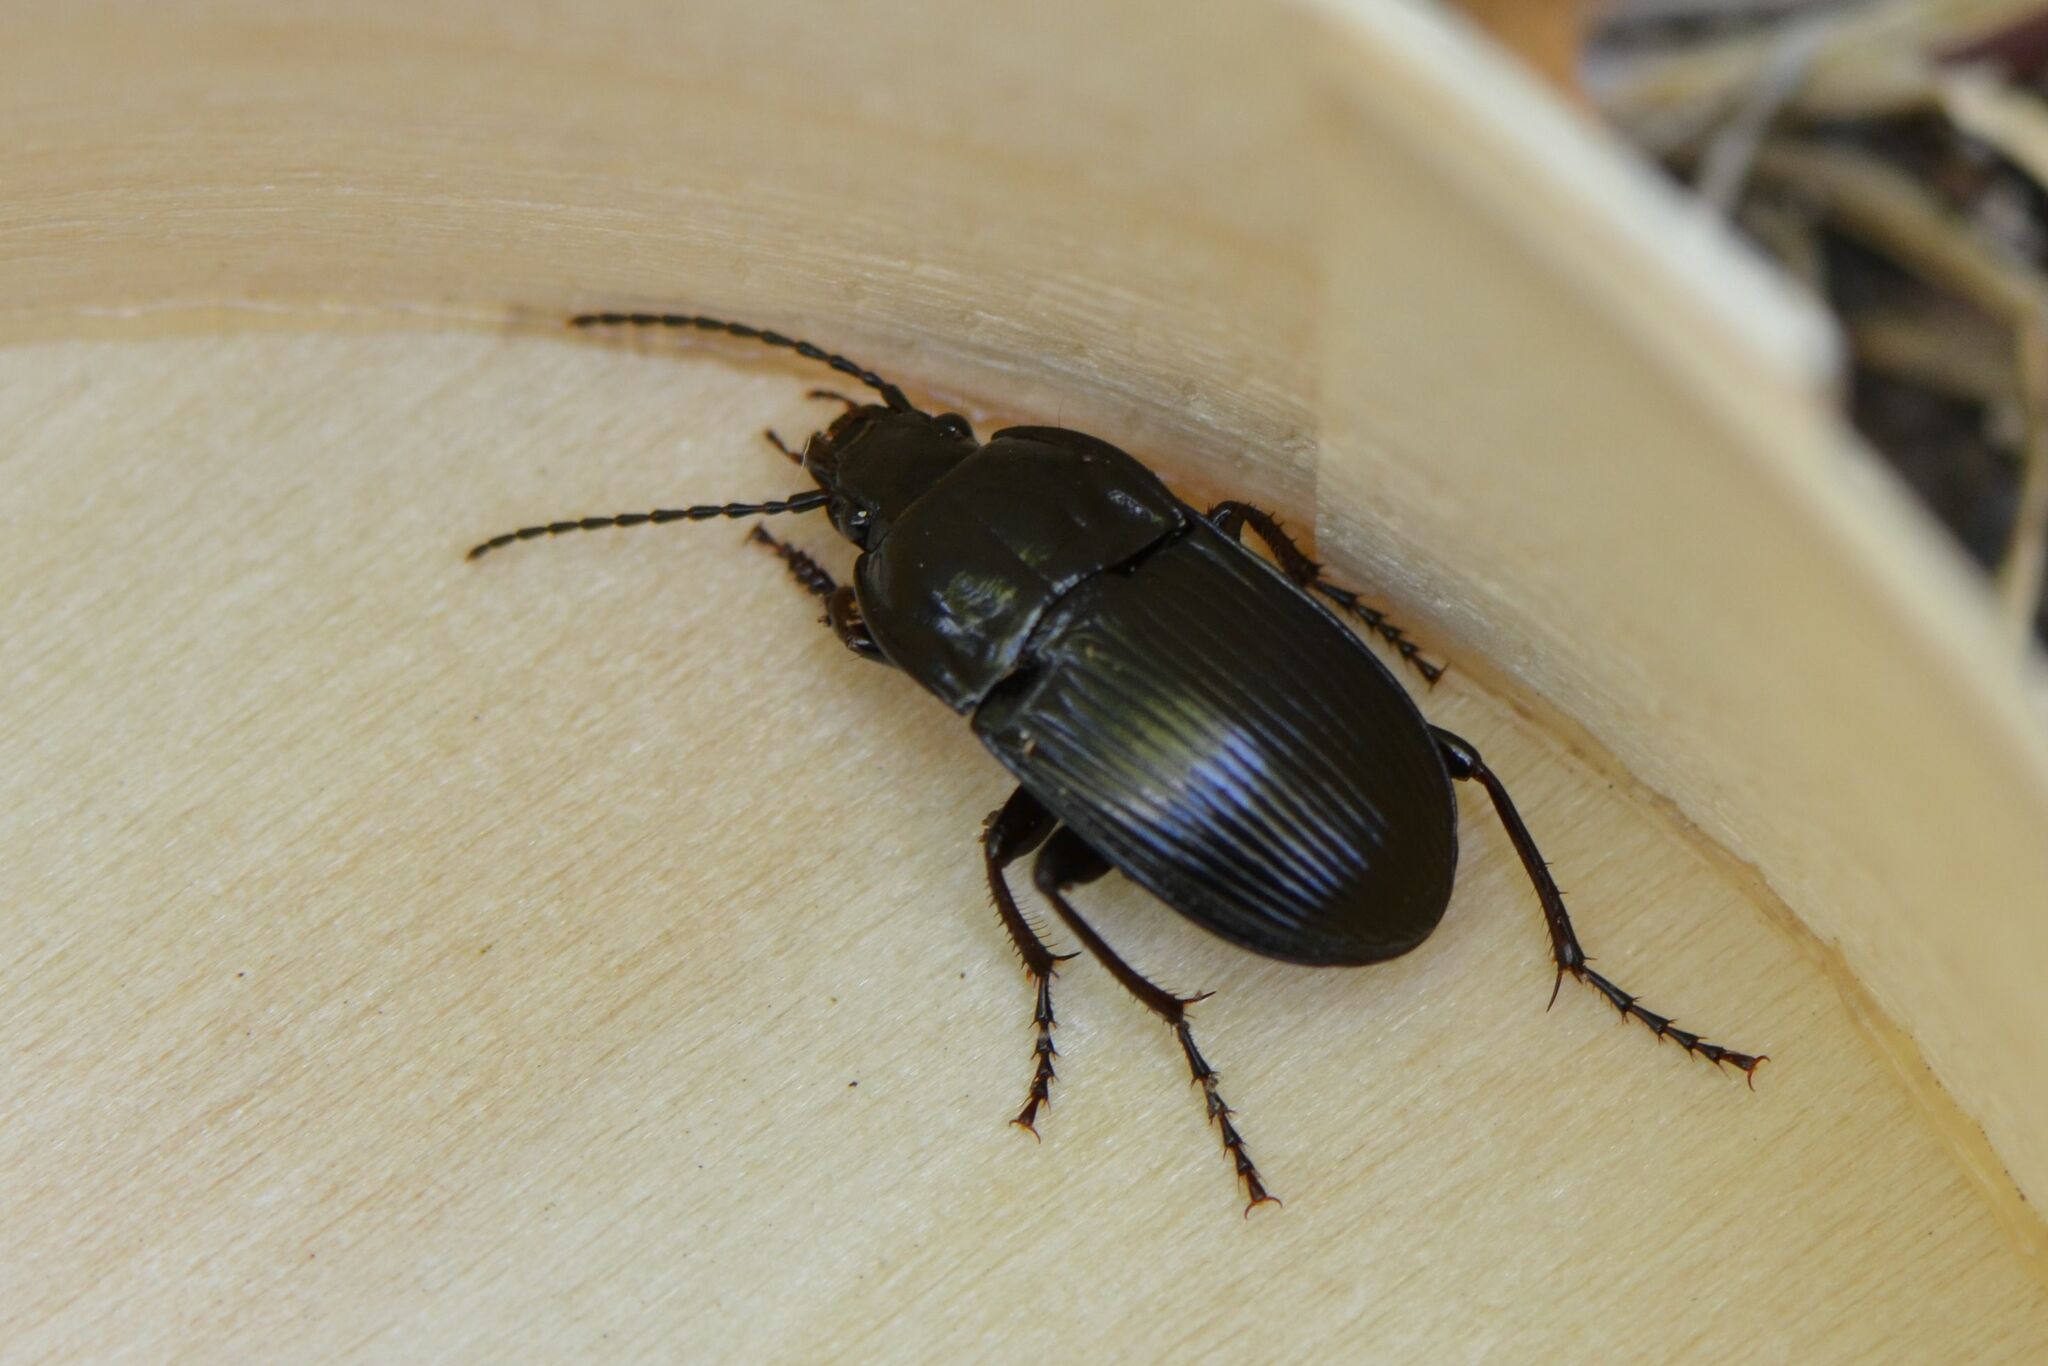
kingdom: Animalia
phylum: Arthropoda
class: Insecta
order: Coleoptera
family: Carabidae
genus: Abax
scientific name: Abax ovalis
